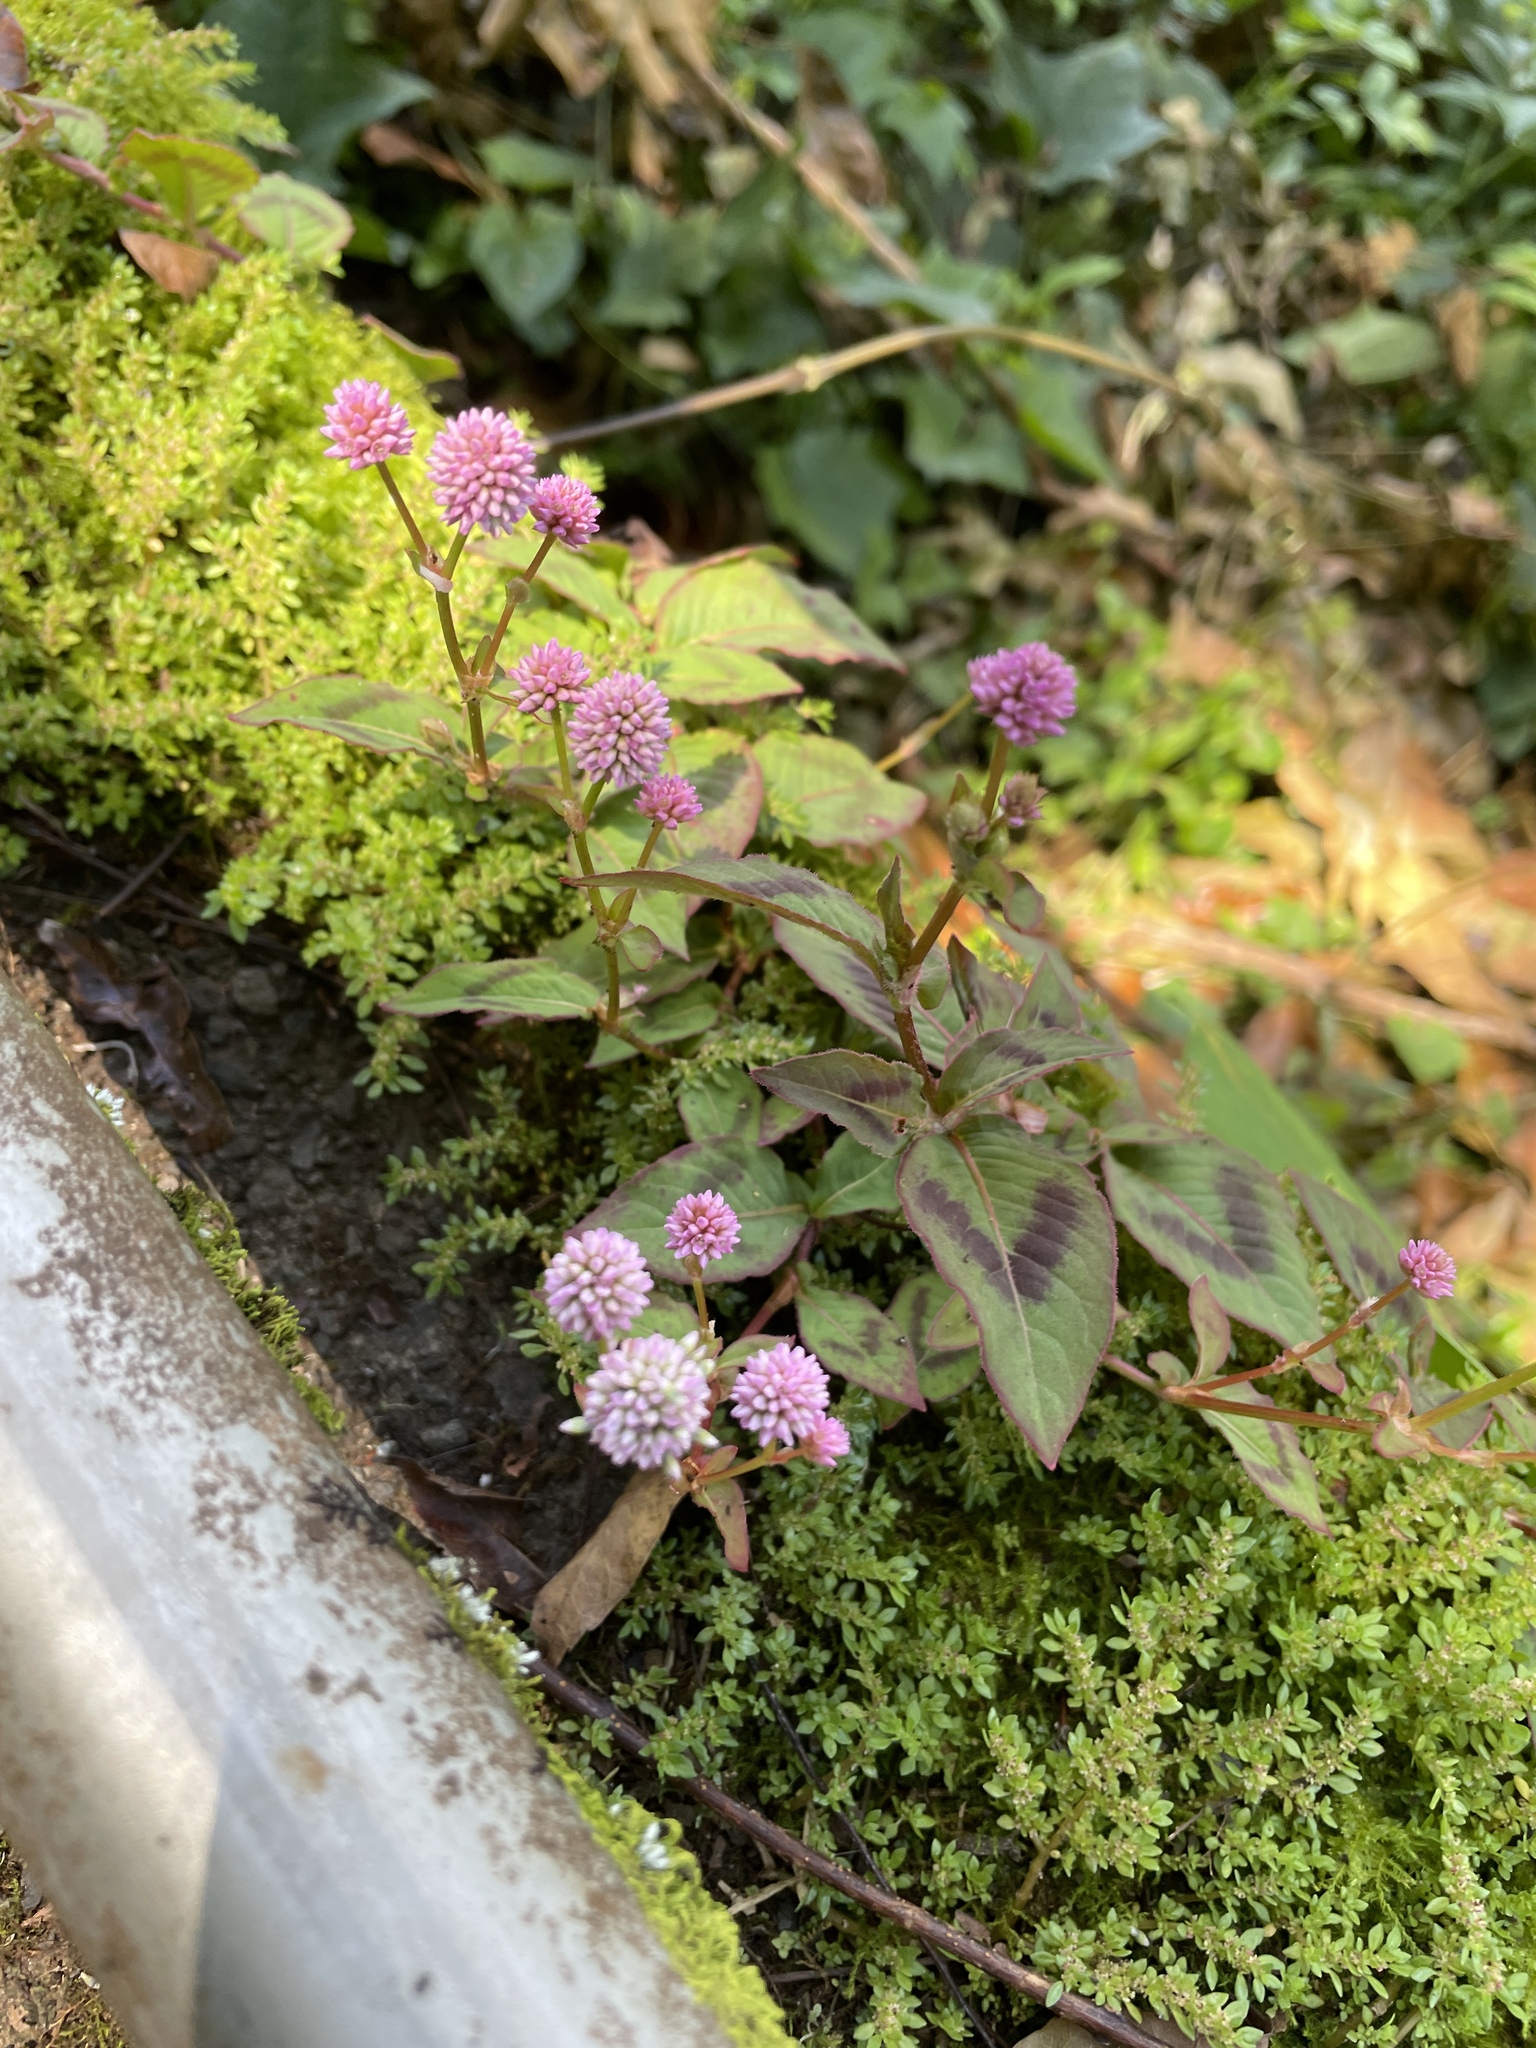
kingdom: Plantae
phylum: Tracheophyta
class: Magnoliopsida
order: Caryophyllales
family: Polygonaceae
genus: Persicaria
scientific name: Persicaria capitata
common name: Pinkhead smartweed
